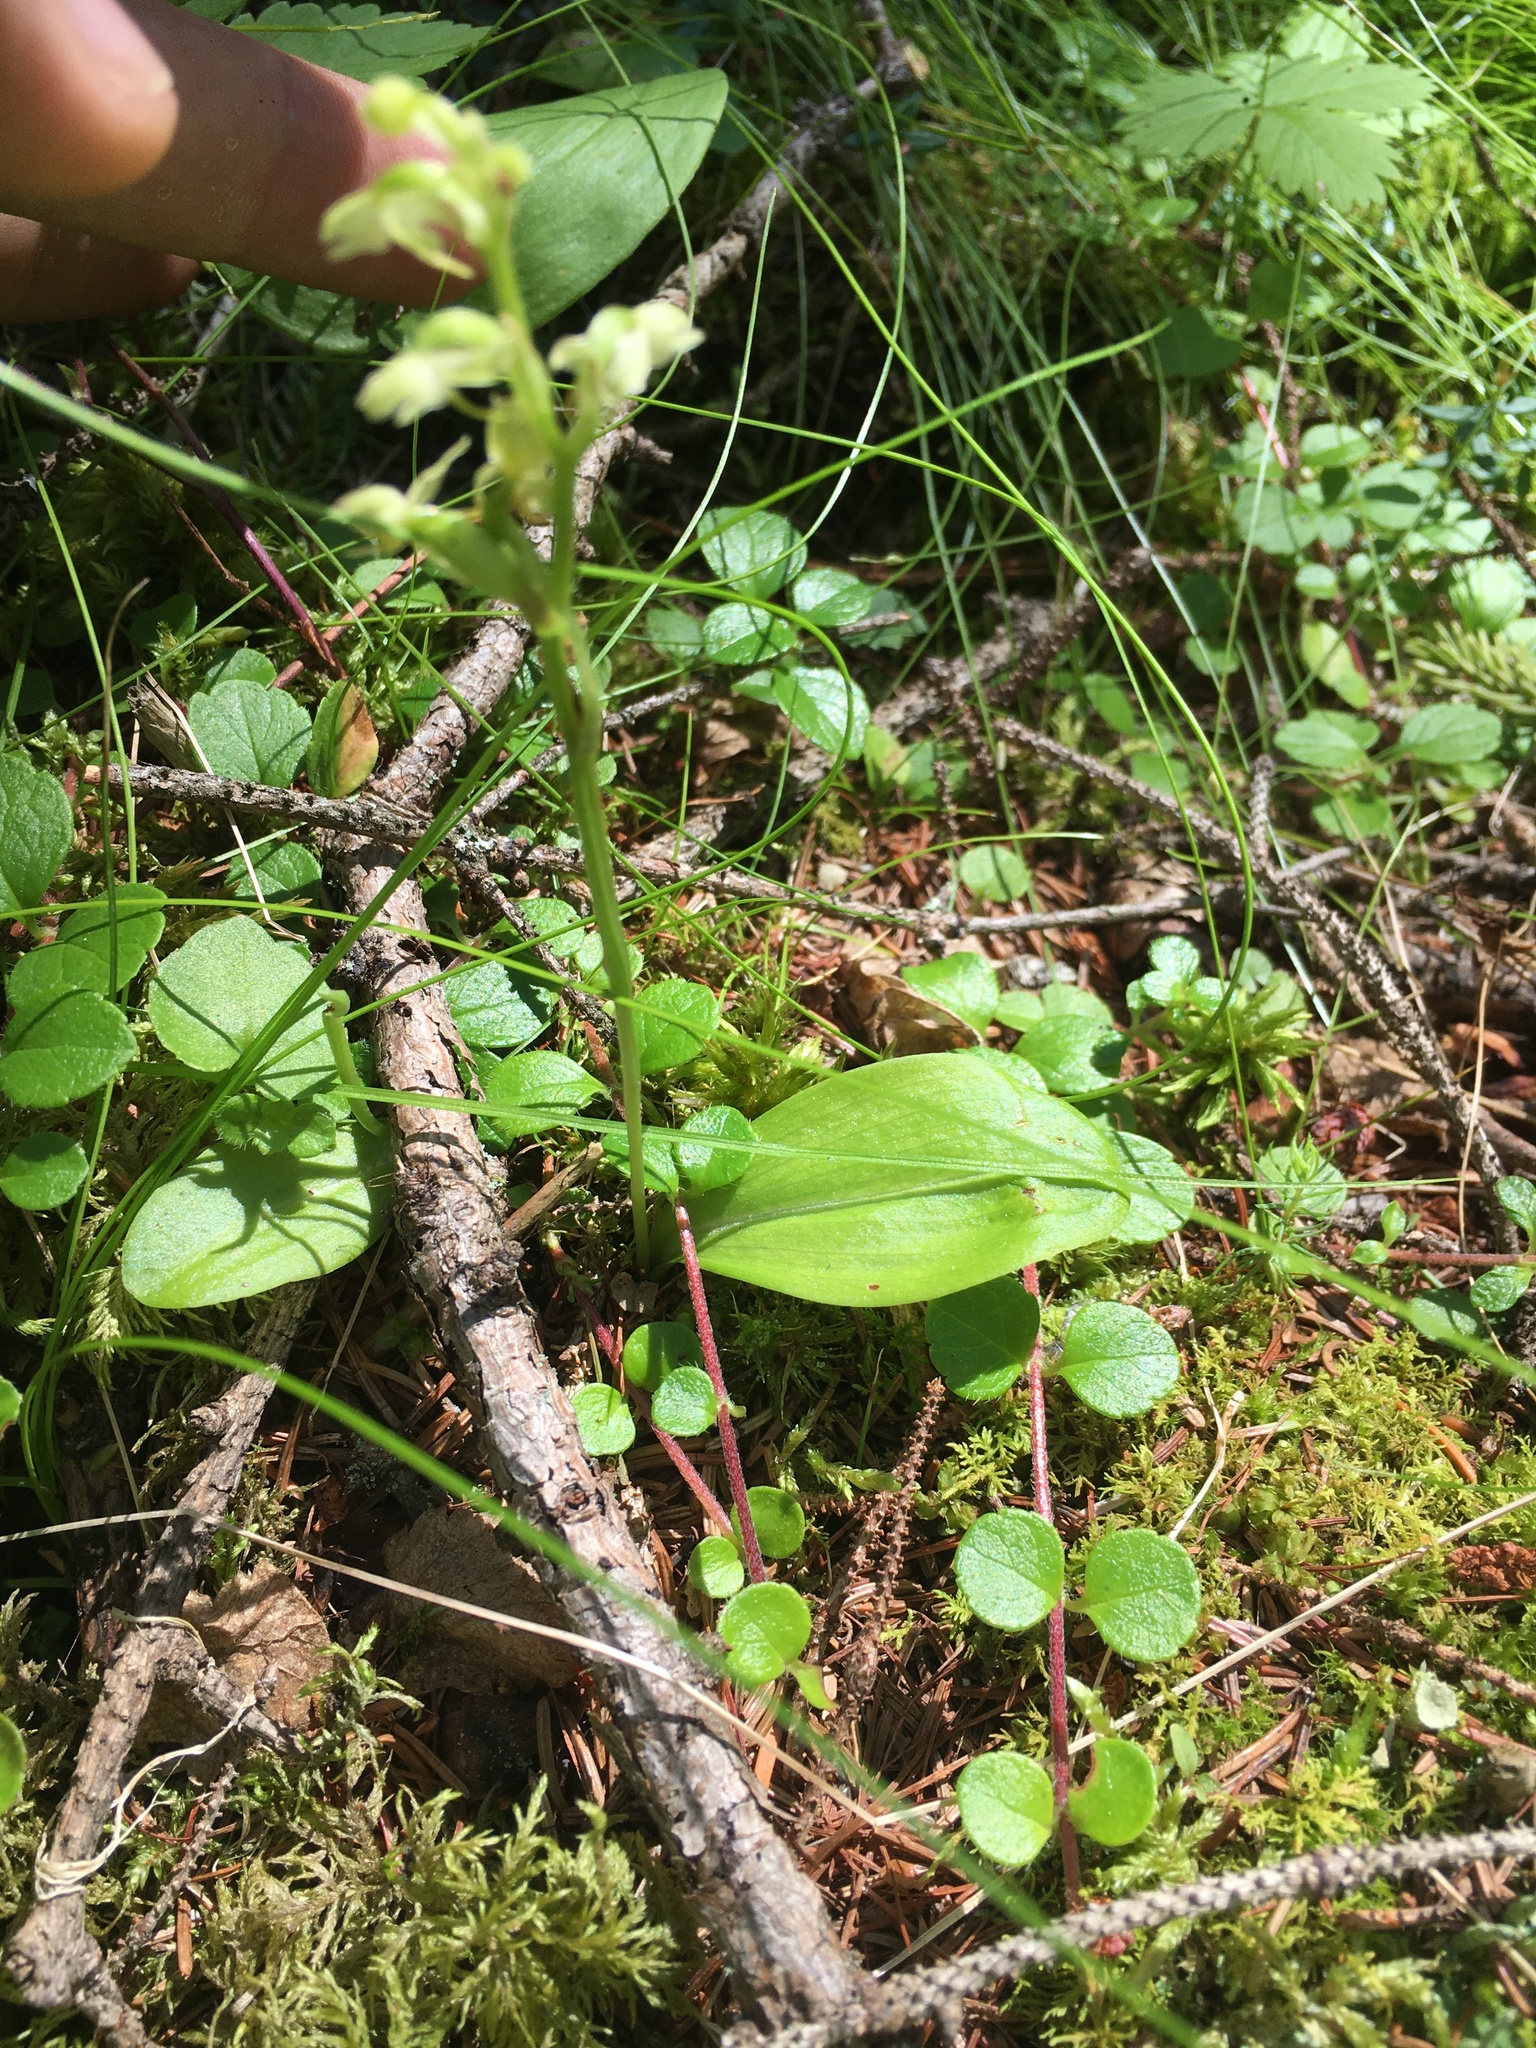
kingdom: Plantae
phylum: Tracheophyta
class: Liliopsida
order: Asparagales
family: Orchidaceae
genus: Platanthera
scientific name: Platanthera obtusata
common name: Blunt bog orchid
